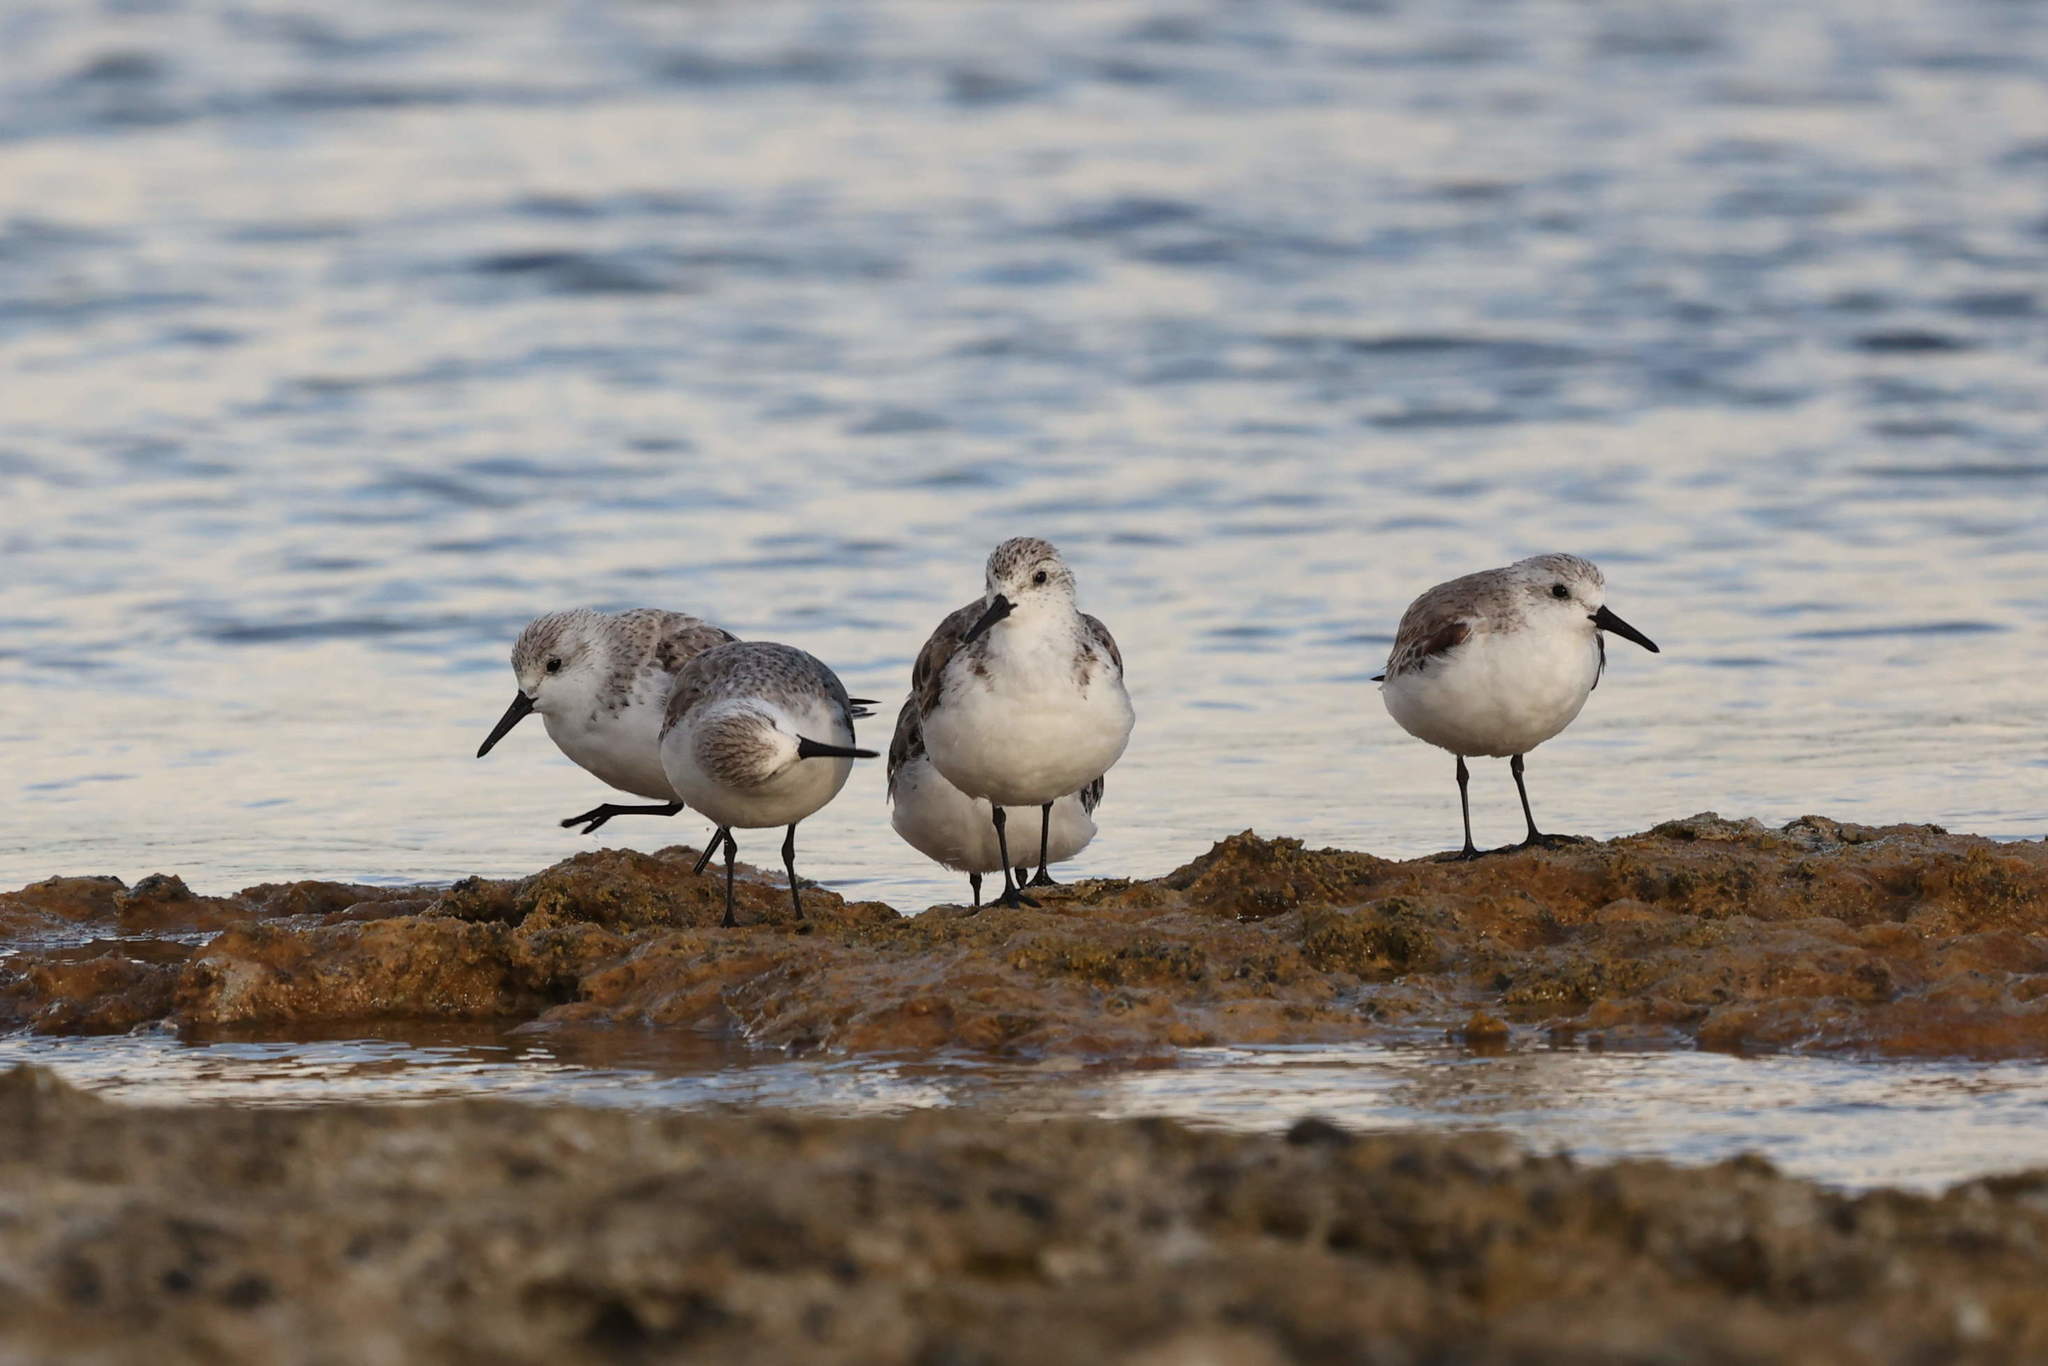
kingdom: Animalia
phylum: Chordata
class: Aves
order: Charadriiformes
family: Scolopacidae
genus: Calidris
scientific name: Calidris alba
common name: Sanderling
